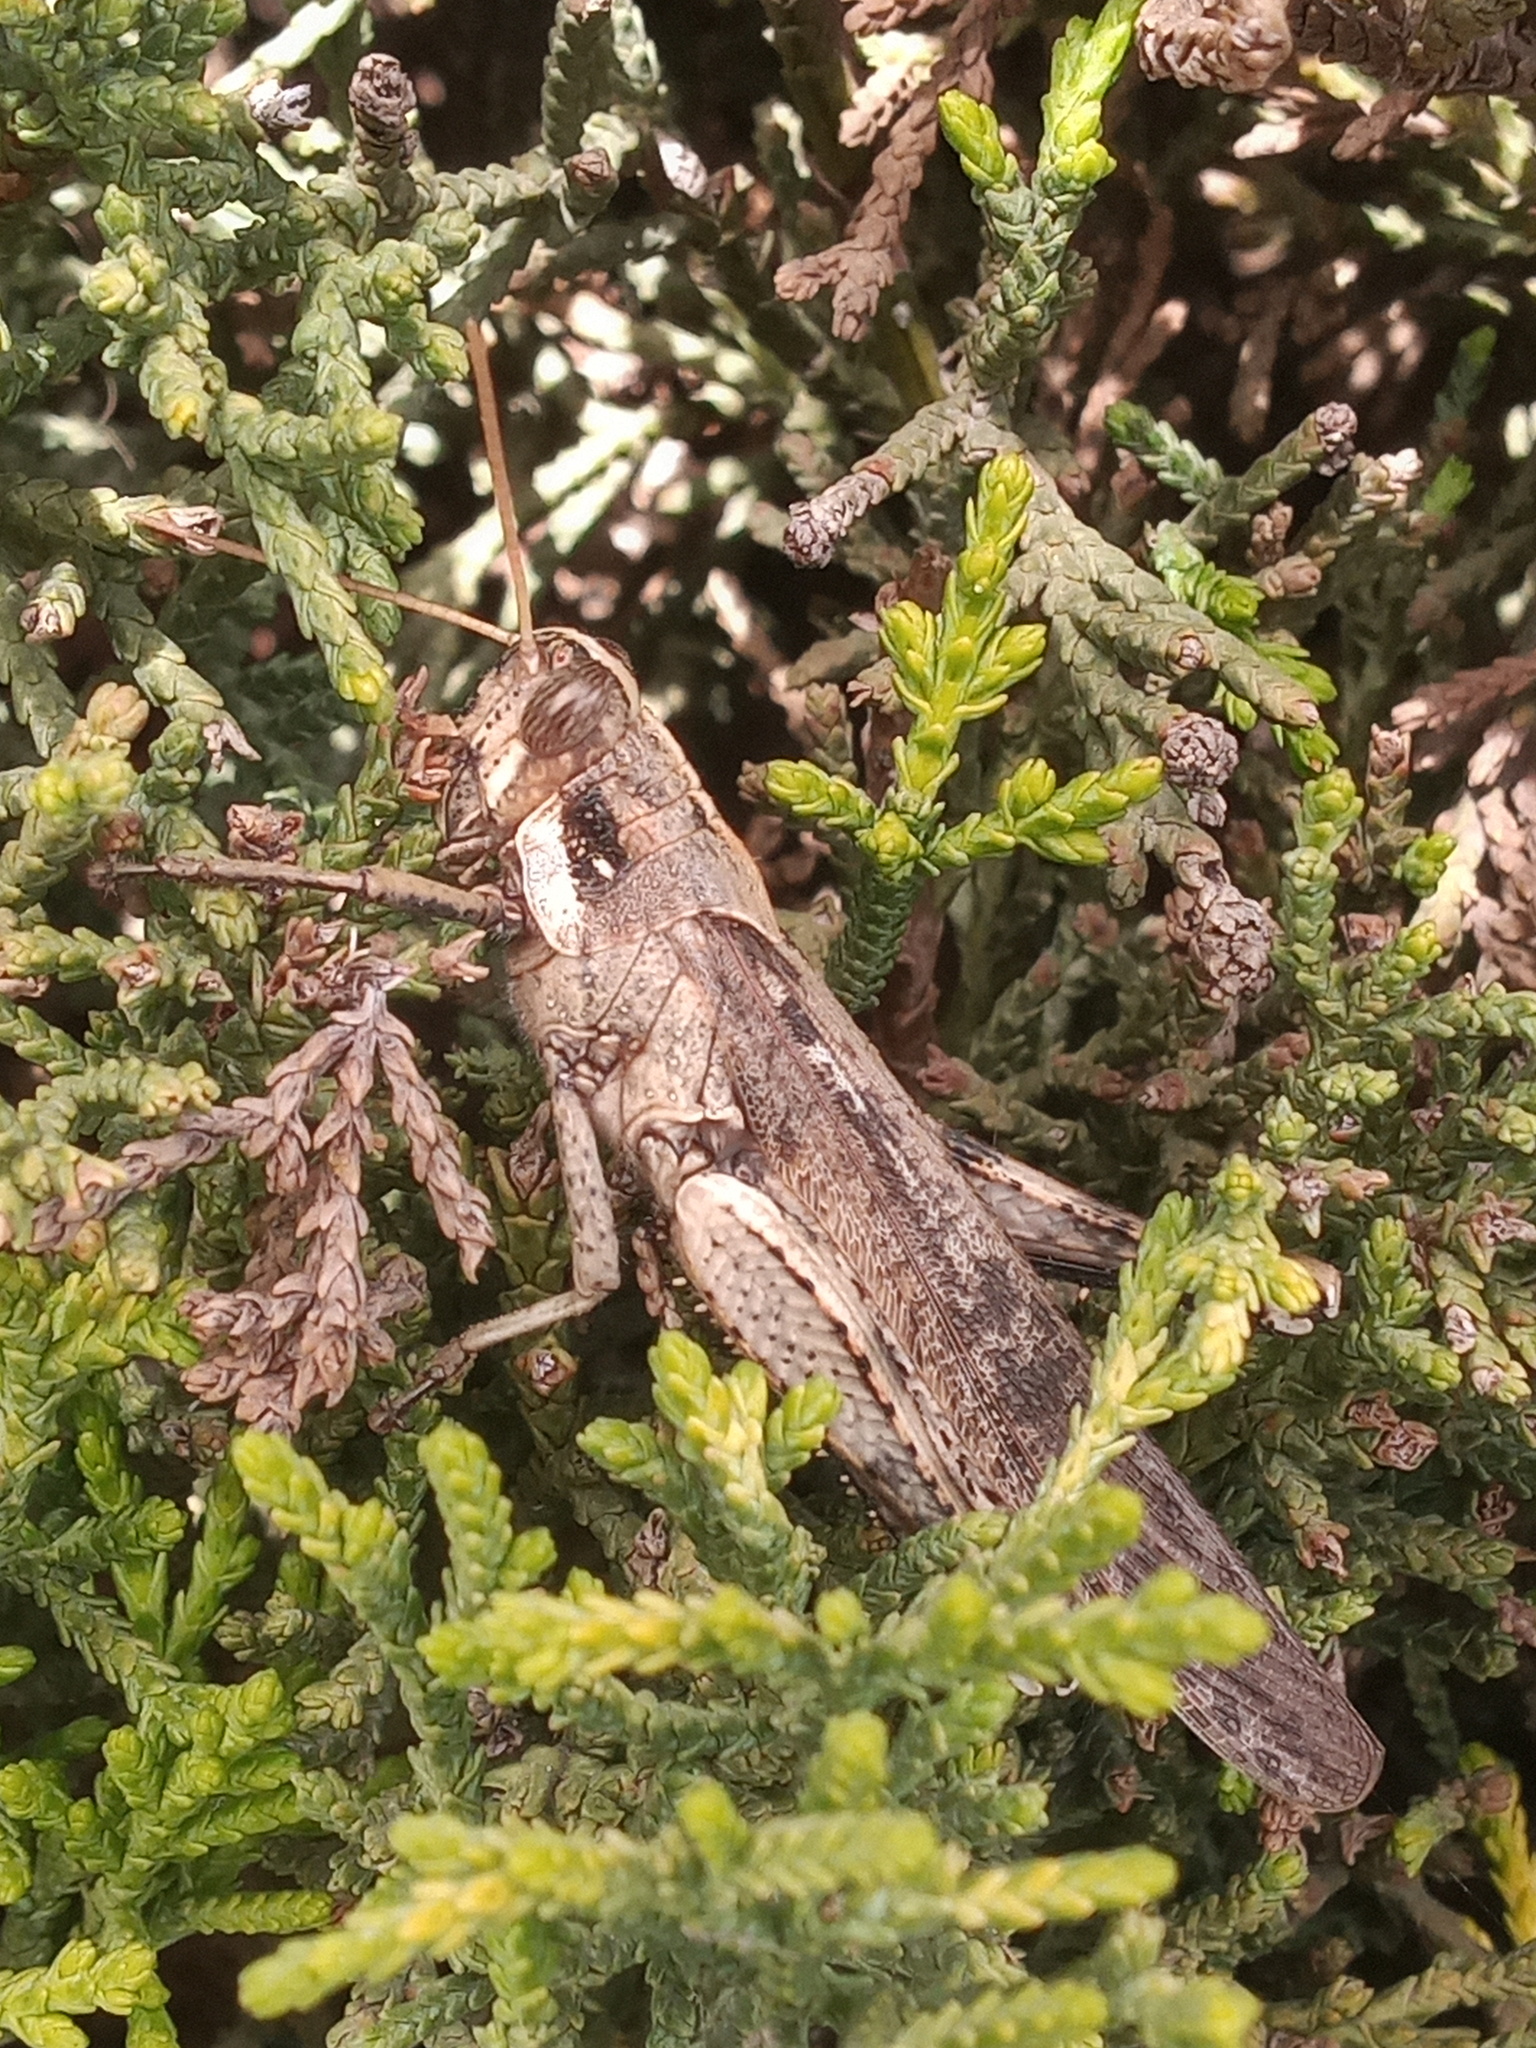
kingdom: Animalia
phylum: Arthropoda
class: Insecta
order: Orthoptera
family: Acrididae
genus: Schistocerca
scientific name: Schistocerca nitens
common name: Vagrant grasshopper
